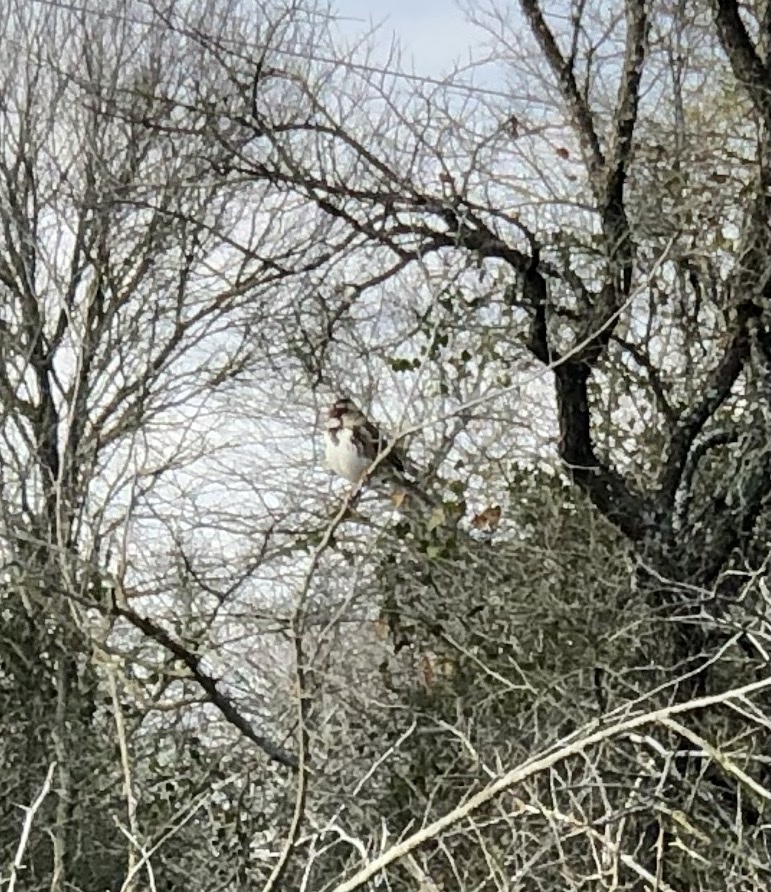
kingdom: Animalia
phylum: Chordata
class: Aves
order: Passeriformes
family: Passerellidae
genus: Zonotrichia
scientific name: Zonotrichia querula
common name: Harris's sparrow
